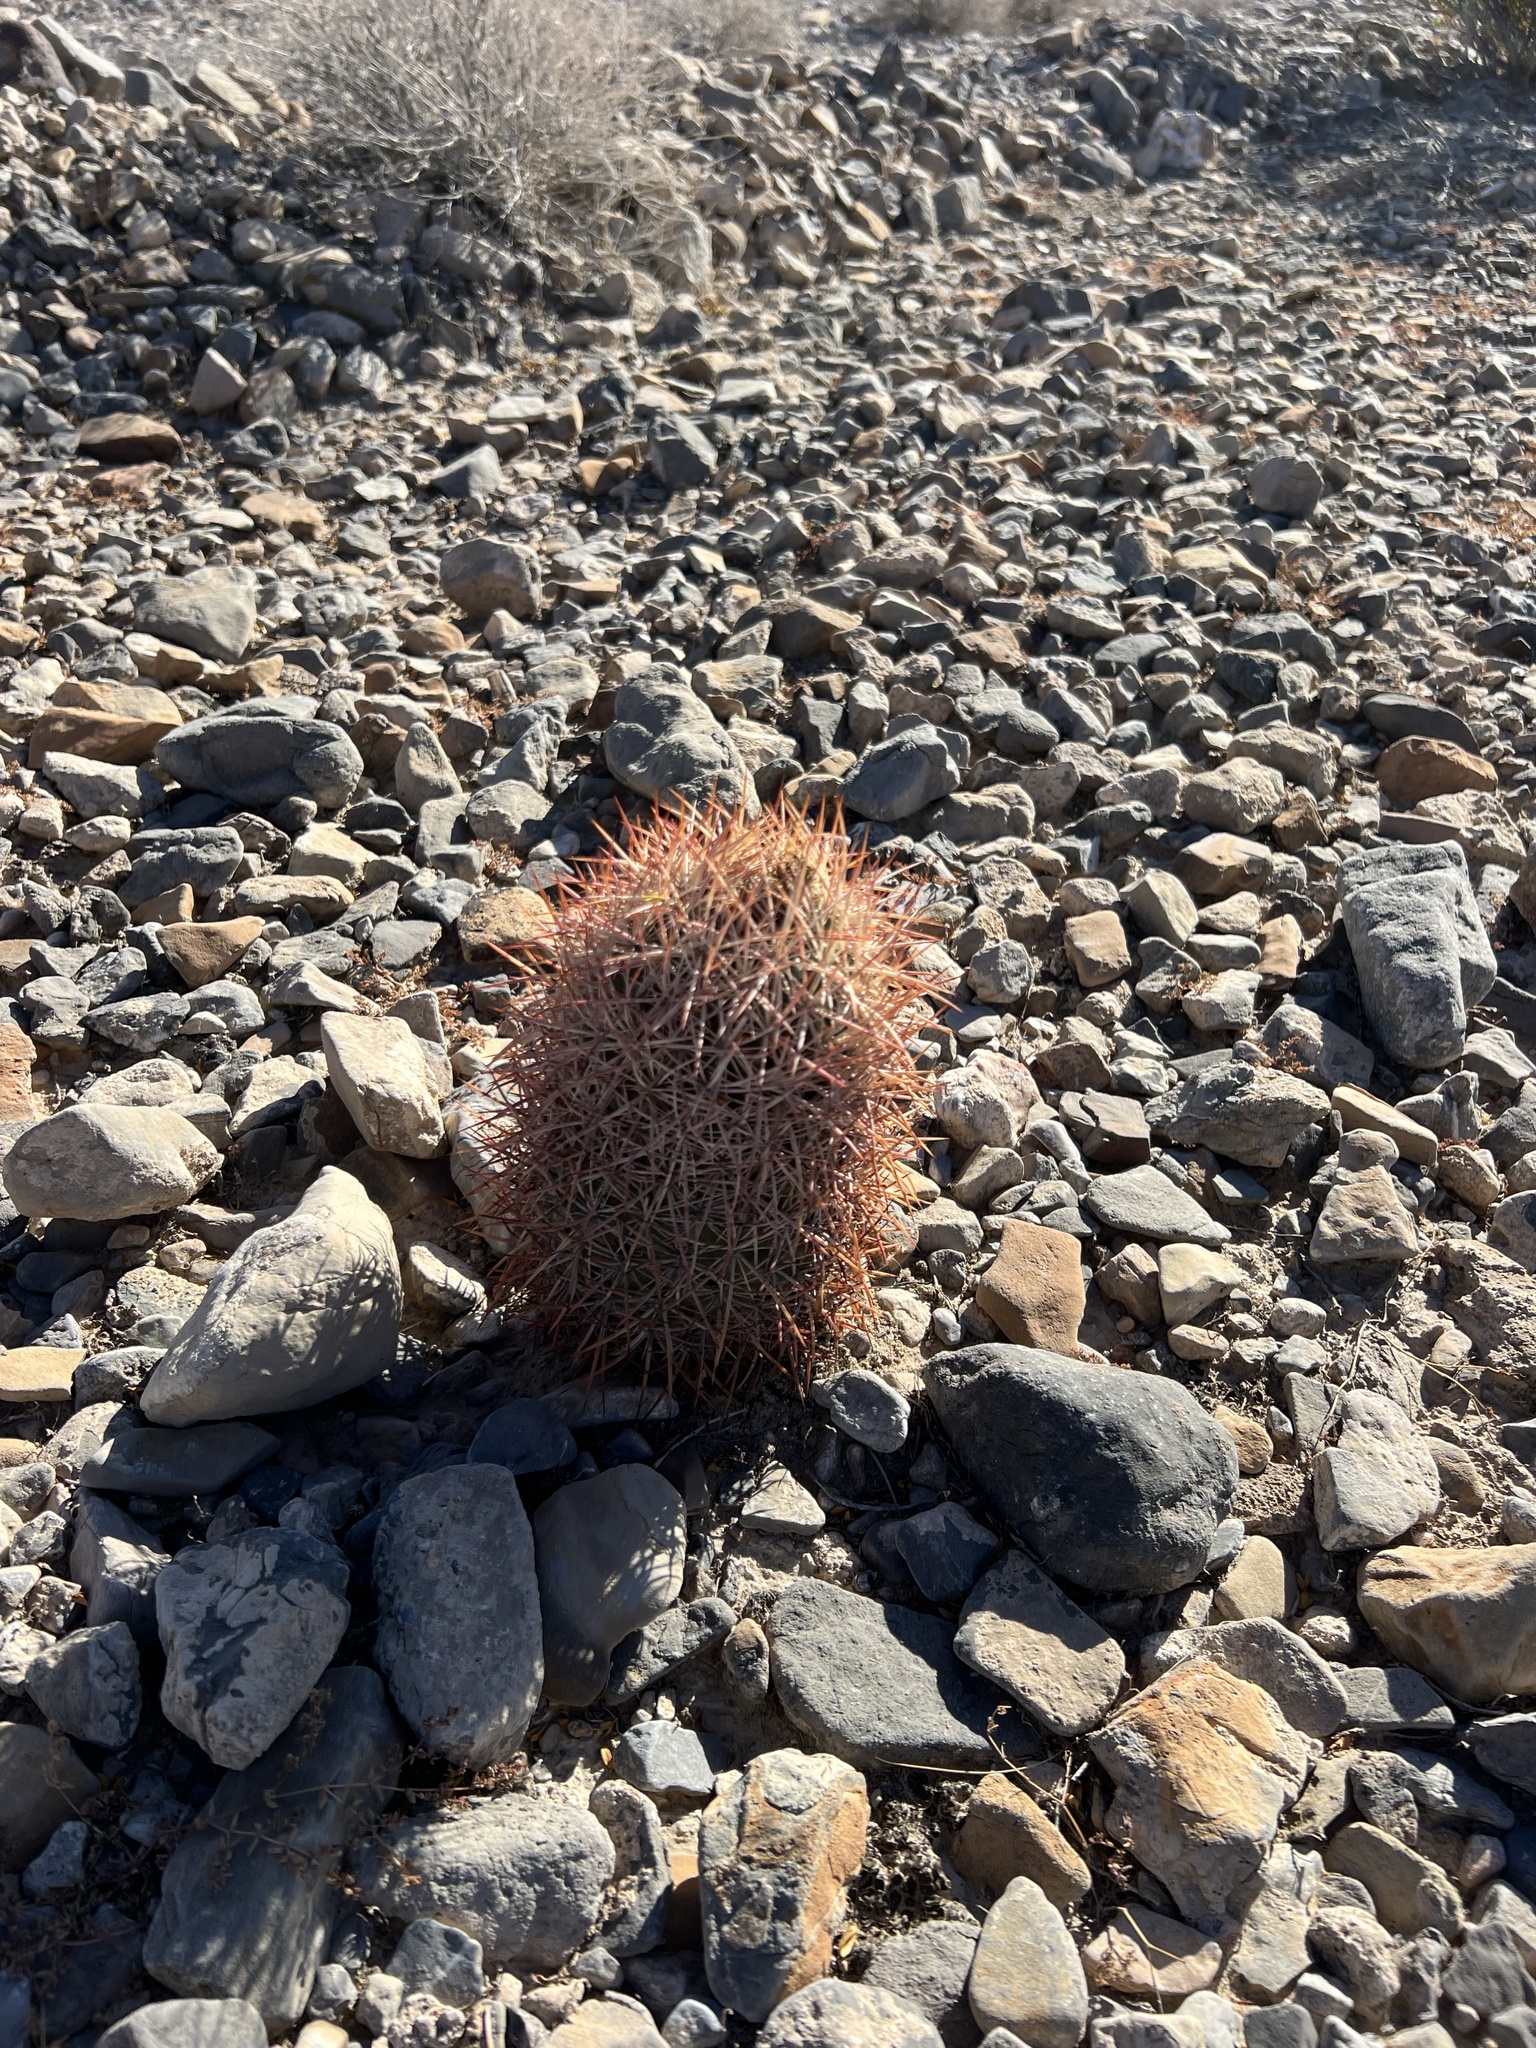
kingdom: Plantae
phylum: Tracheophyta
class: Magnoliopsida
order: Caryophyllales
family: Cactaceae
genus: Sclerocactus
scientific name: Sclerocactus johnsonii
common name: Eight-spine fishhook cactus
